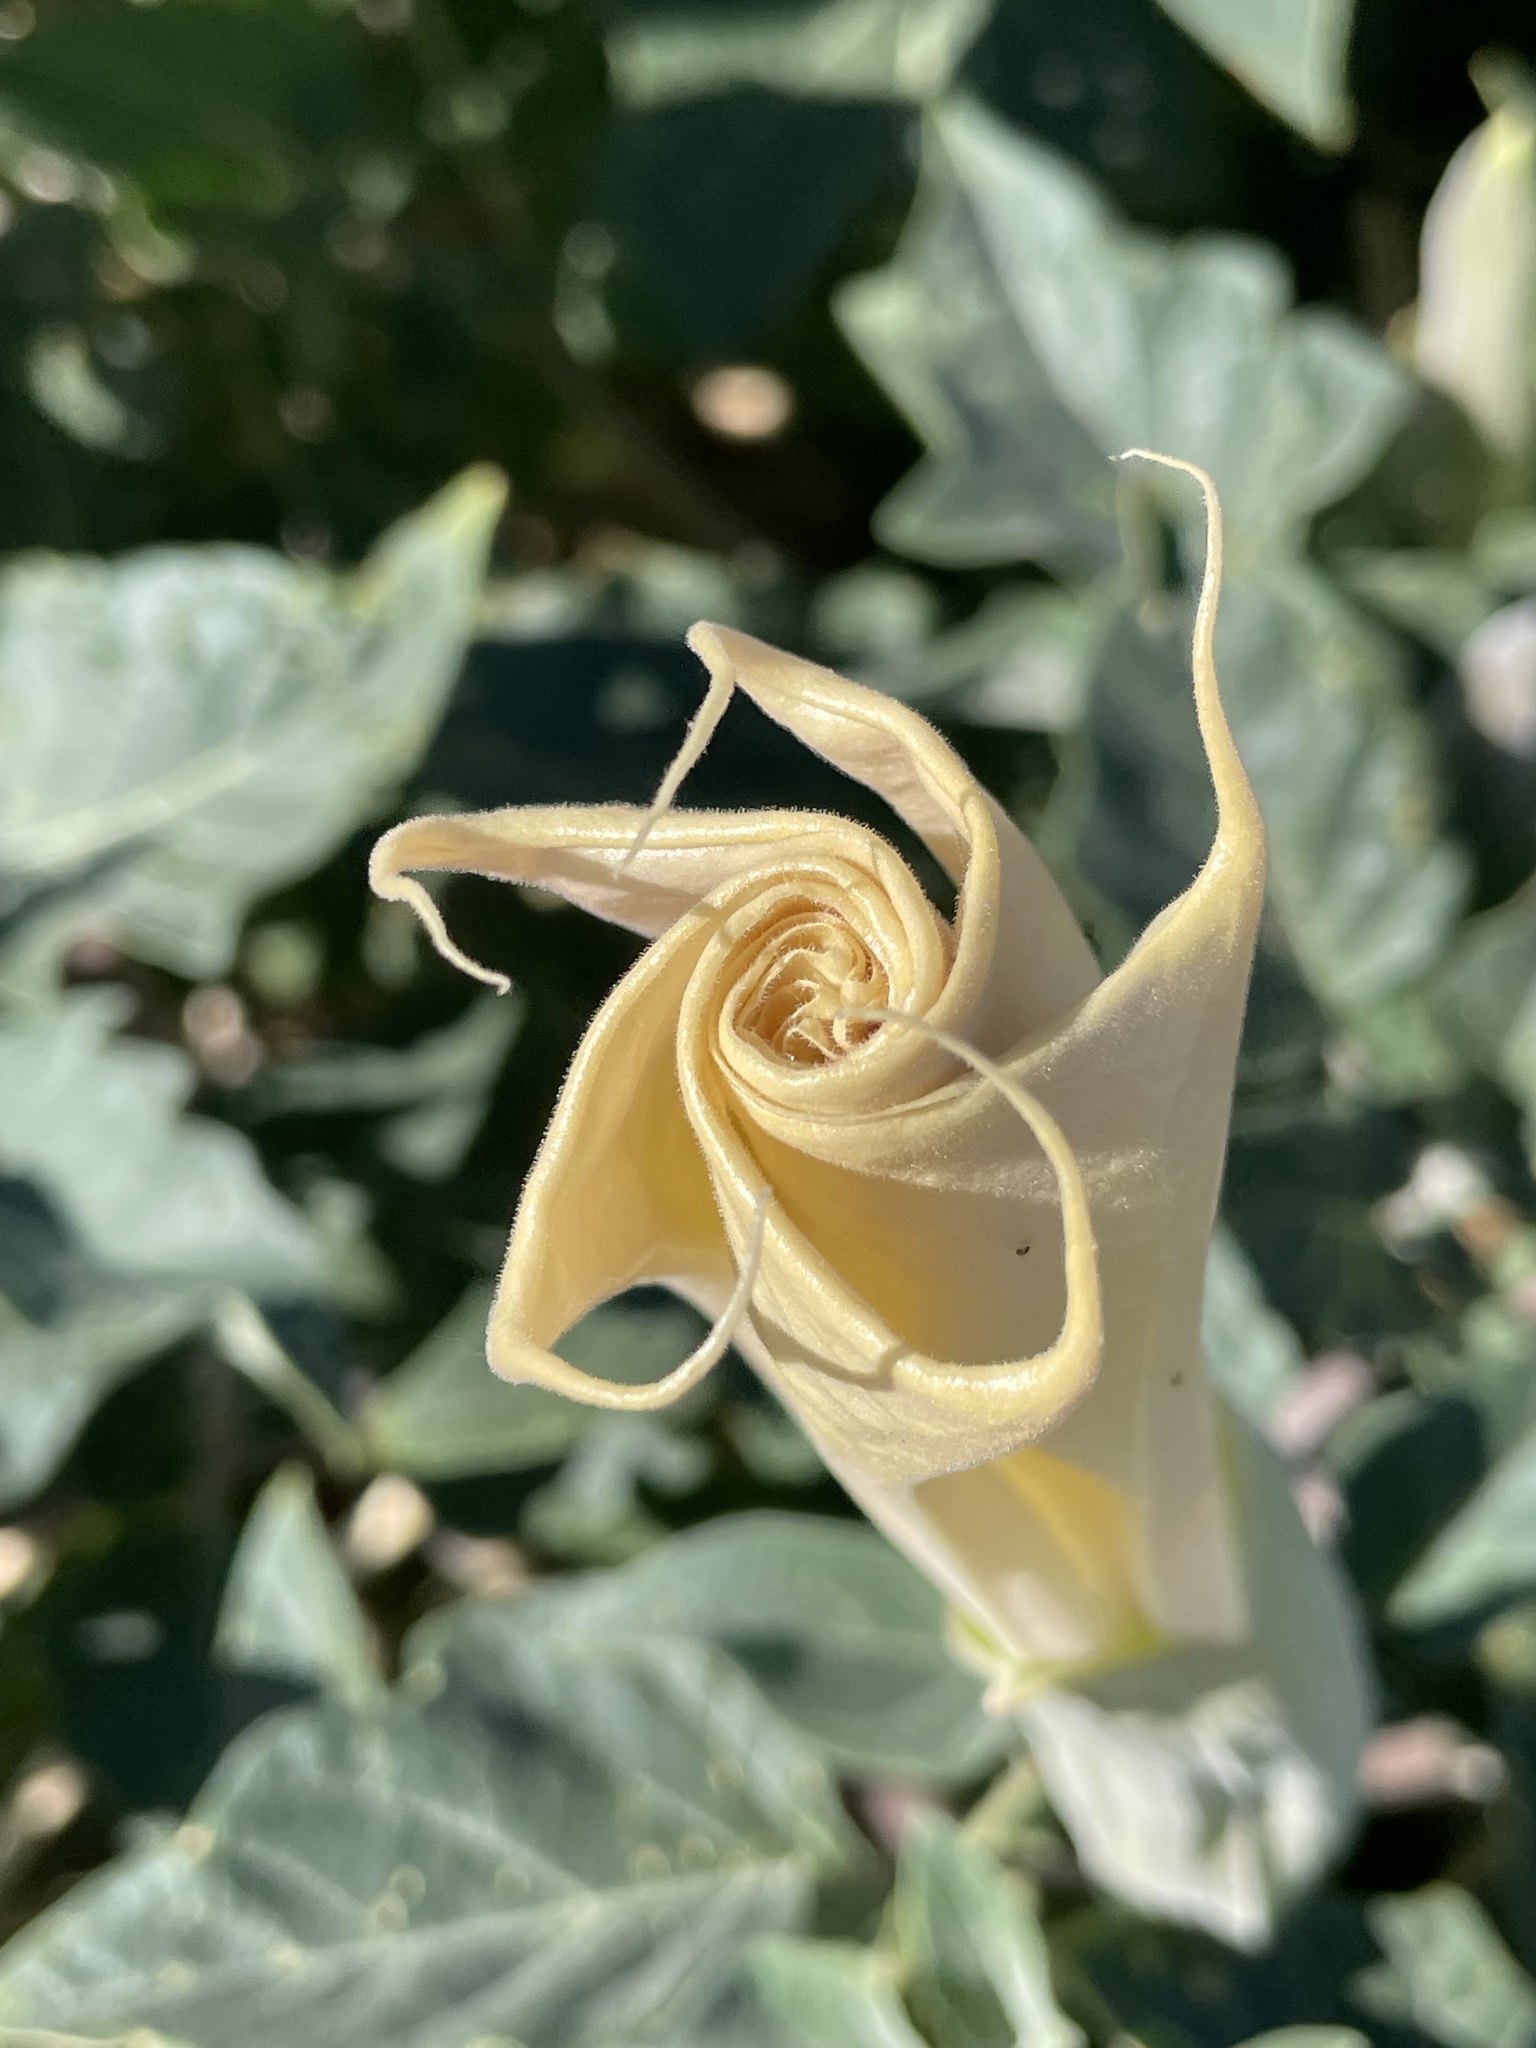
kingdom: Plantae
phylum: Tracheophyta
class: Magnoliopsida
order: Solanales
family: Solanaceae
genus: Datura
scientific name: Datura wrightii
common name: Sacred thorn-apple
